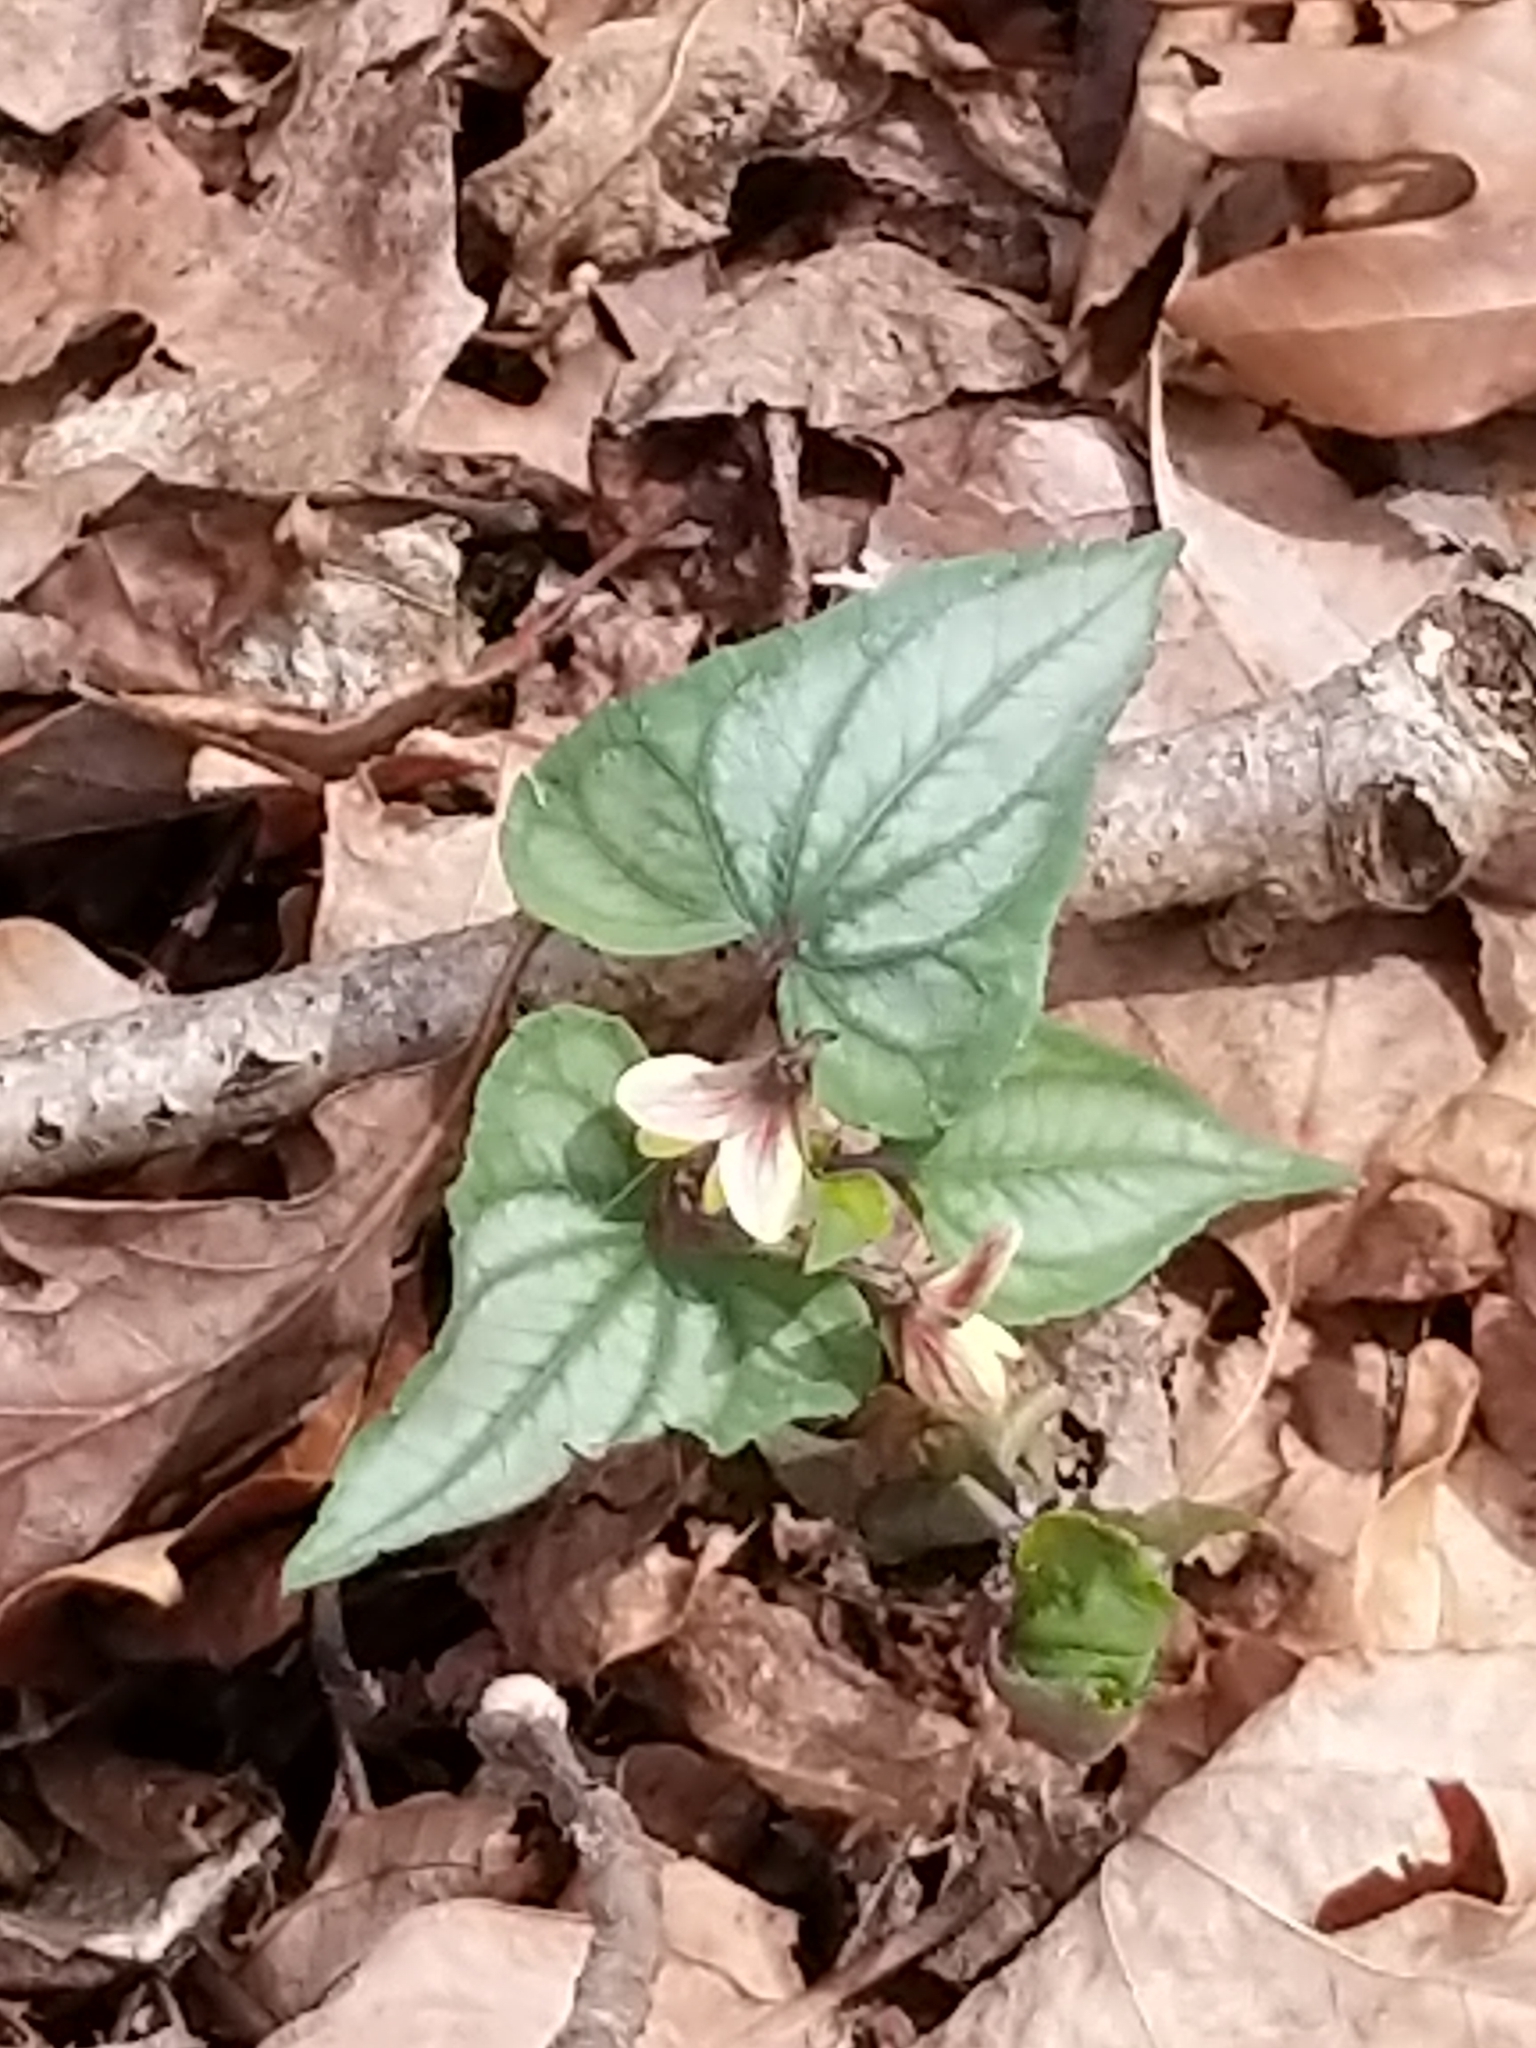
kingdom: Plantae
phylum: Tracheophyta
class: Magnoliopsida
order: Malpighiales
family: Violaceae
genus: Viola
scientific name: Viola hastata
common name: Spear-leaf violet
